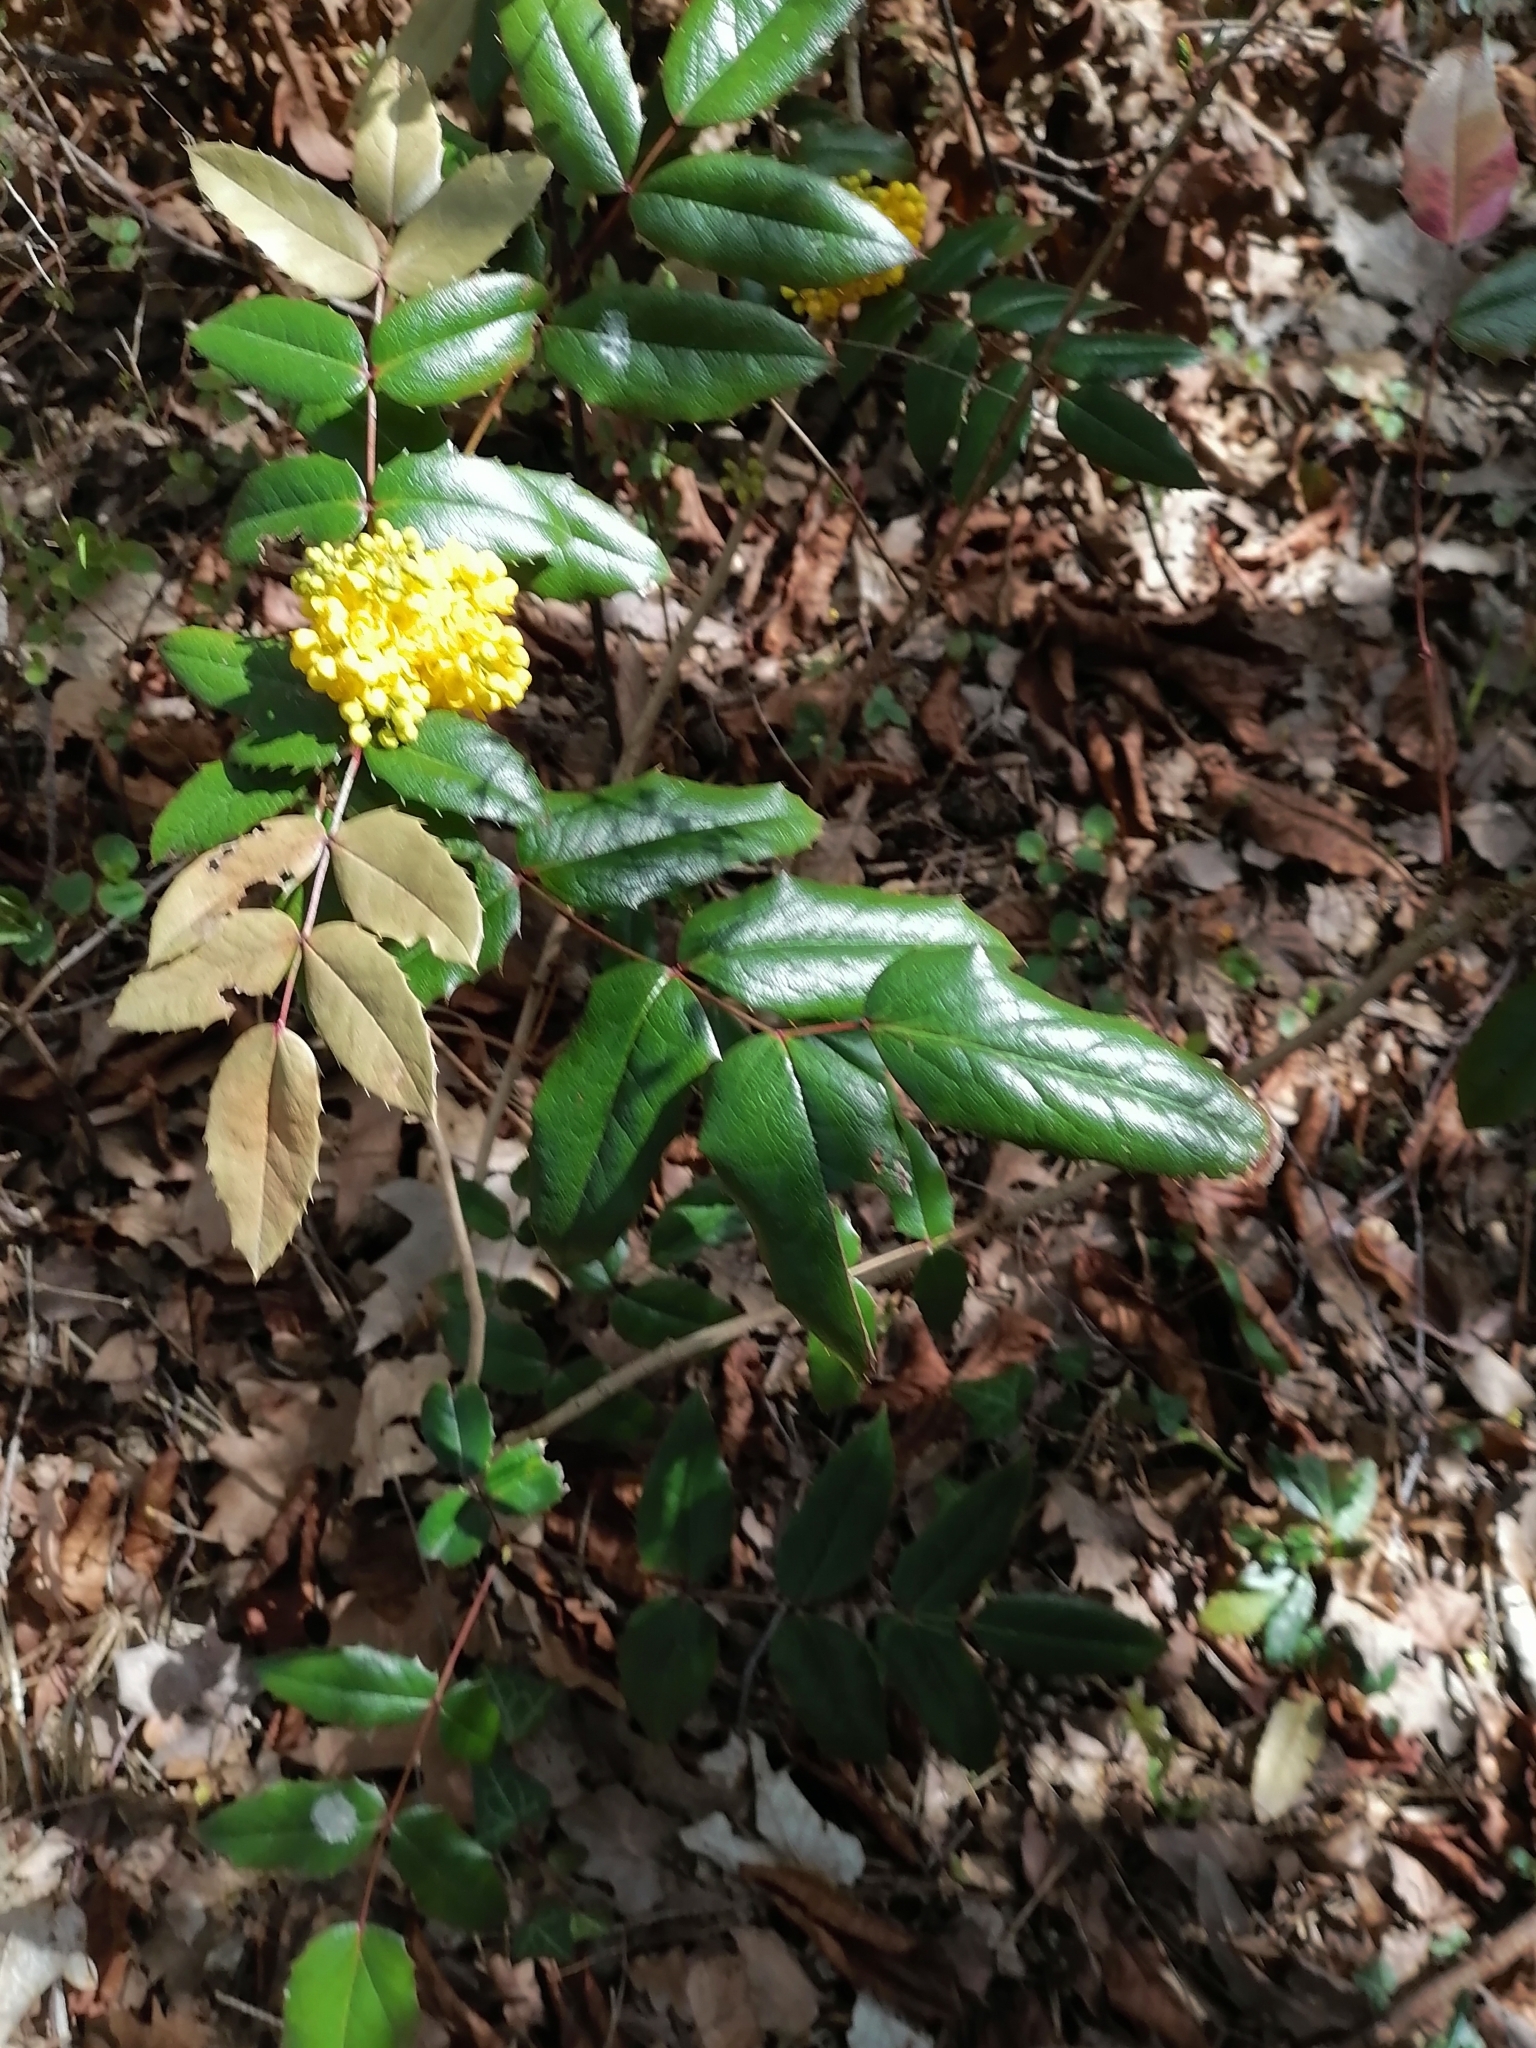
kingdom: Plantae
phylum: Tracheophyta
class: Magnoliopsida
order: Ranunculales
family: Berberidaceae
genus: Mahonia
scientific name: Mahonia aquifolium
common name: Oregon-grape
